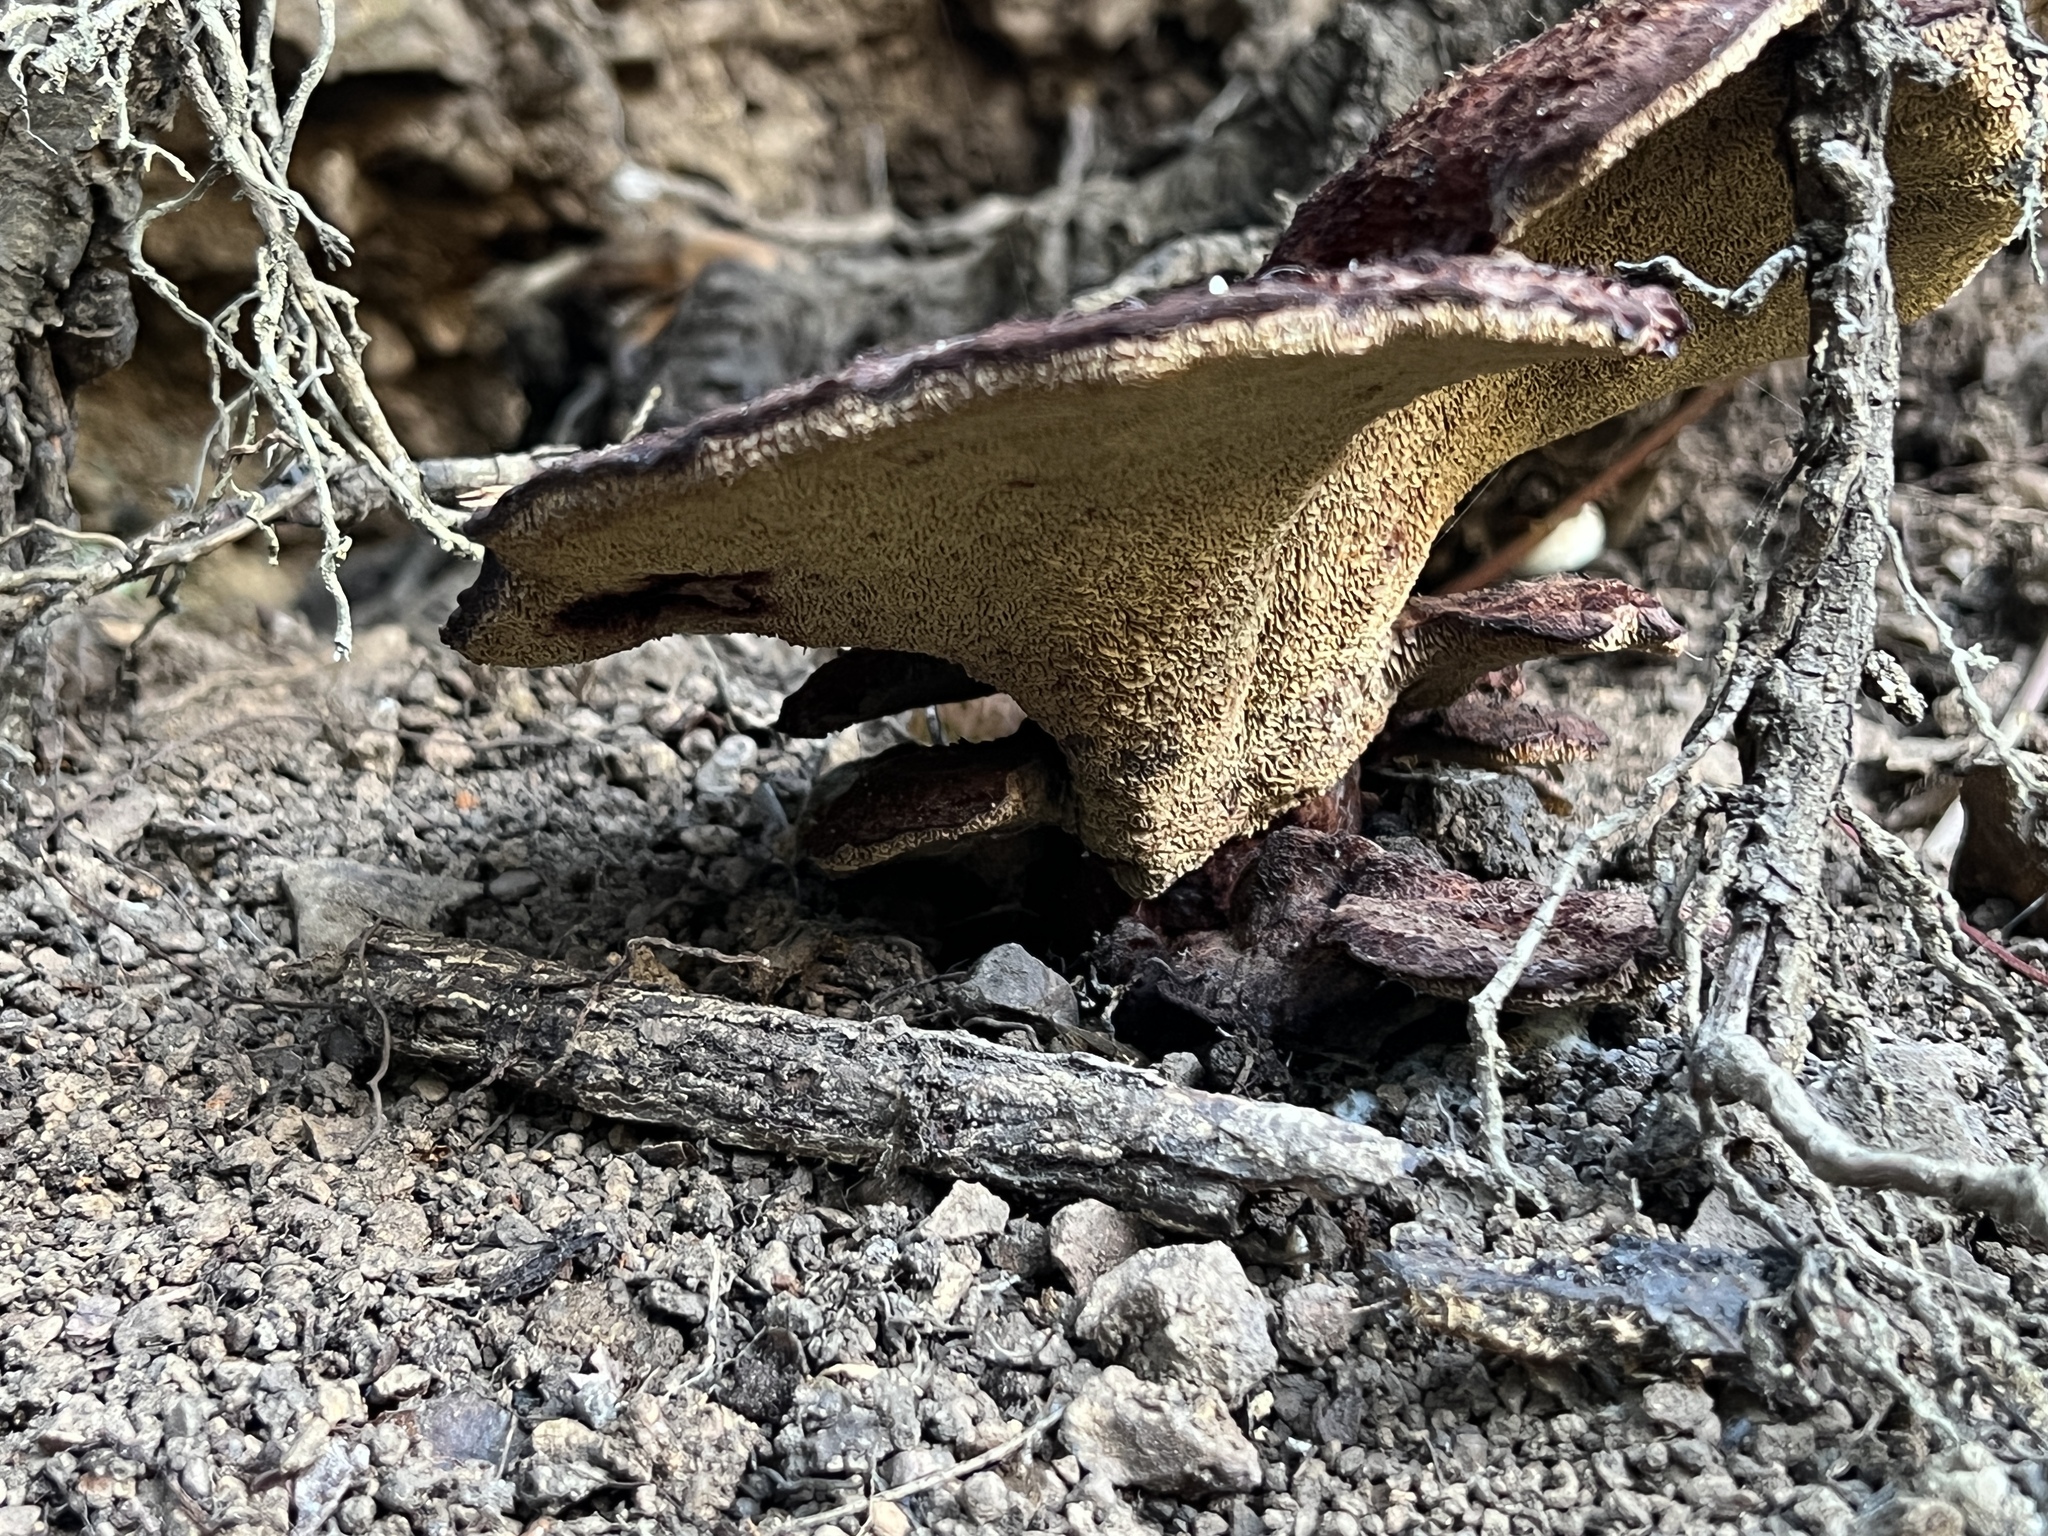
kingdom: Fungi
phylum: Basidiomycota
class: Agaricomycetes
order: Polyporales
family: Laetiporaceae
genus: Phaeolus
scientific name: Phaeolus schweinitzii
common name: Dyer's mazegill
